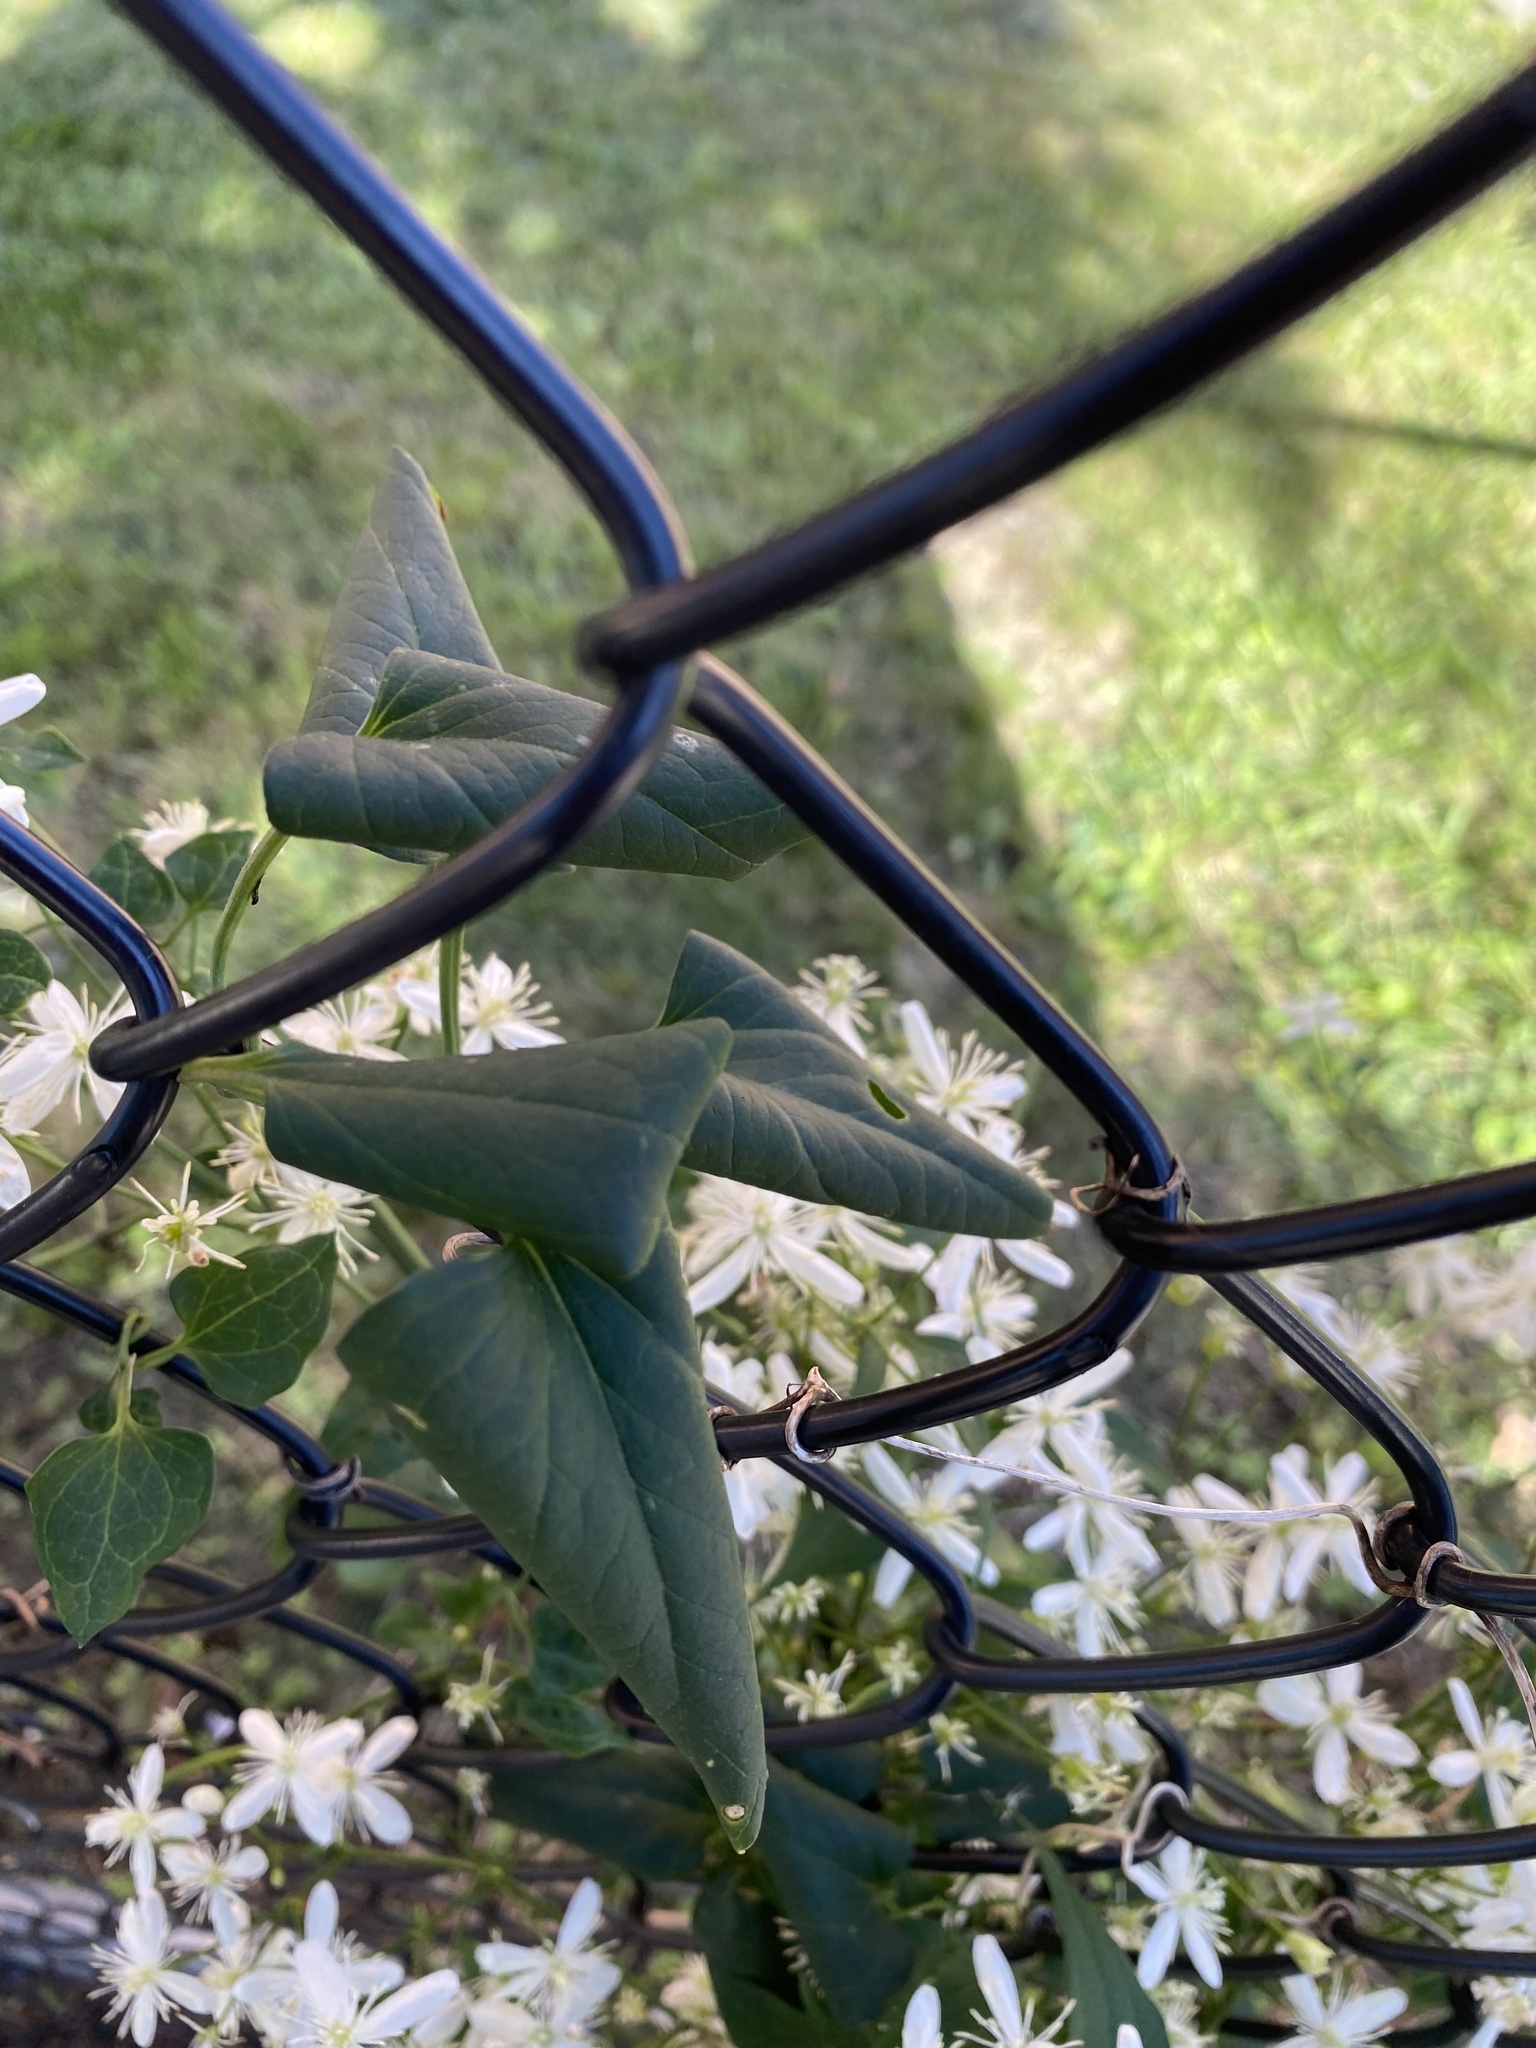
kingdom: Plantae
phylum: Tracheophyta
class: Magnoliopsida
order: Ranunculales
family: Ranunculaceae
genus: Clematis
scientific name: Clematis terniflora
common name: Sweet autumn clematis
